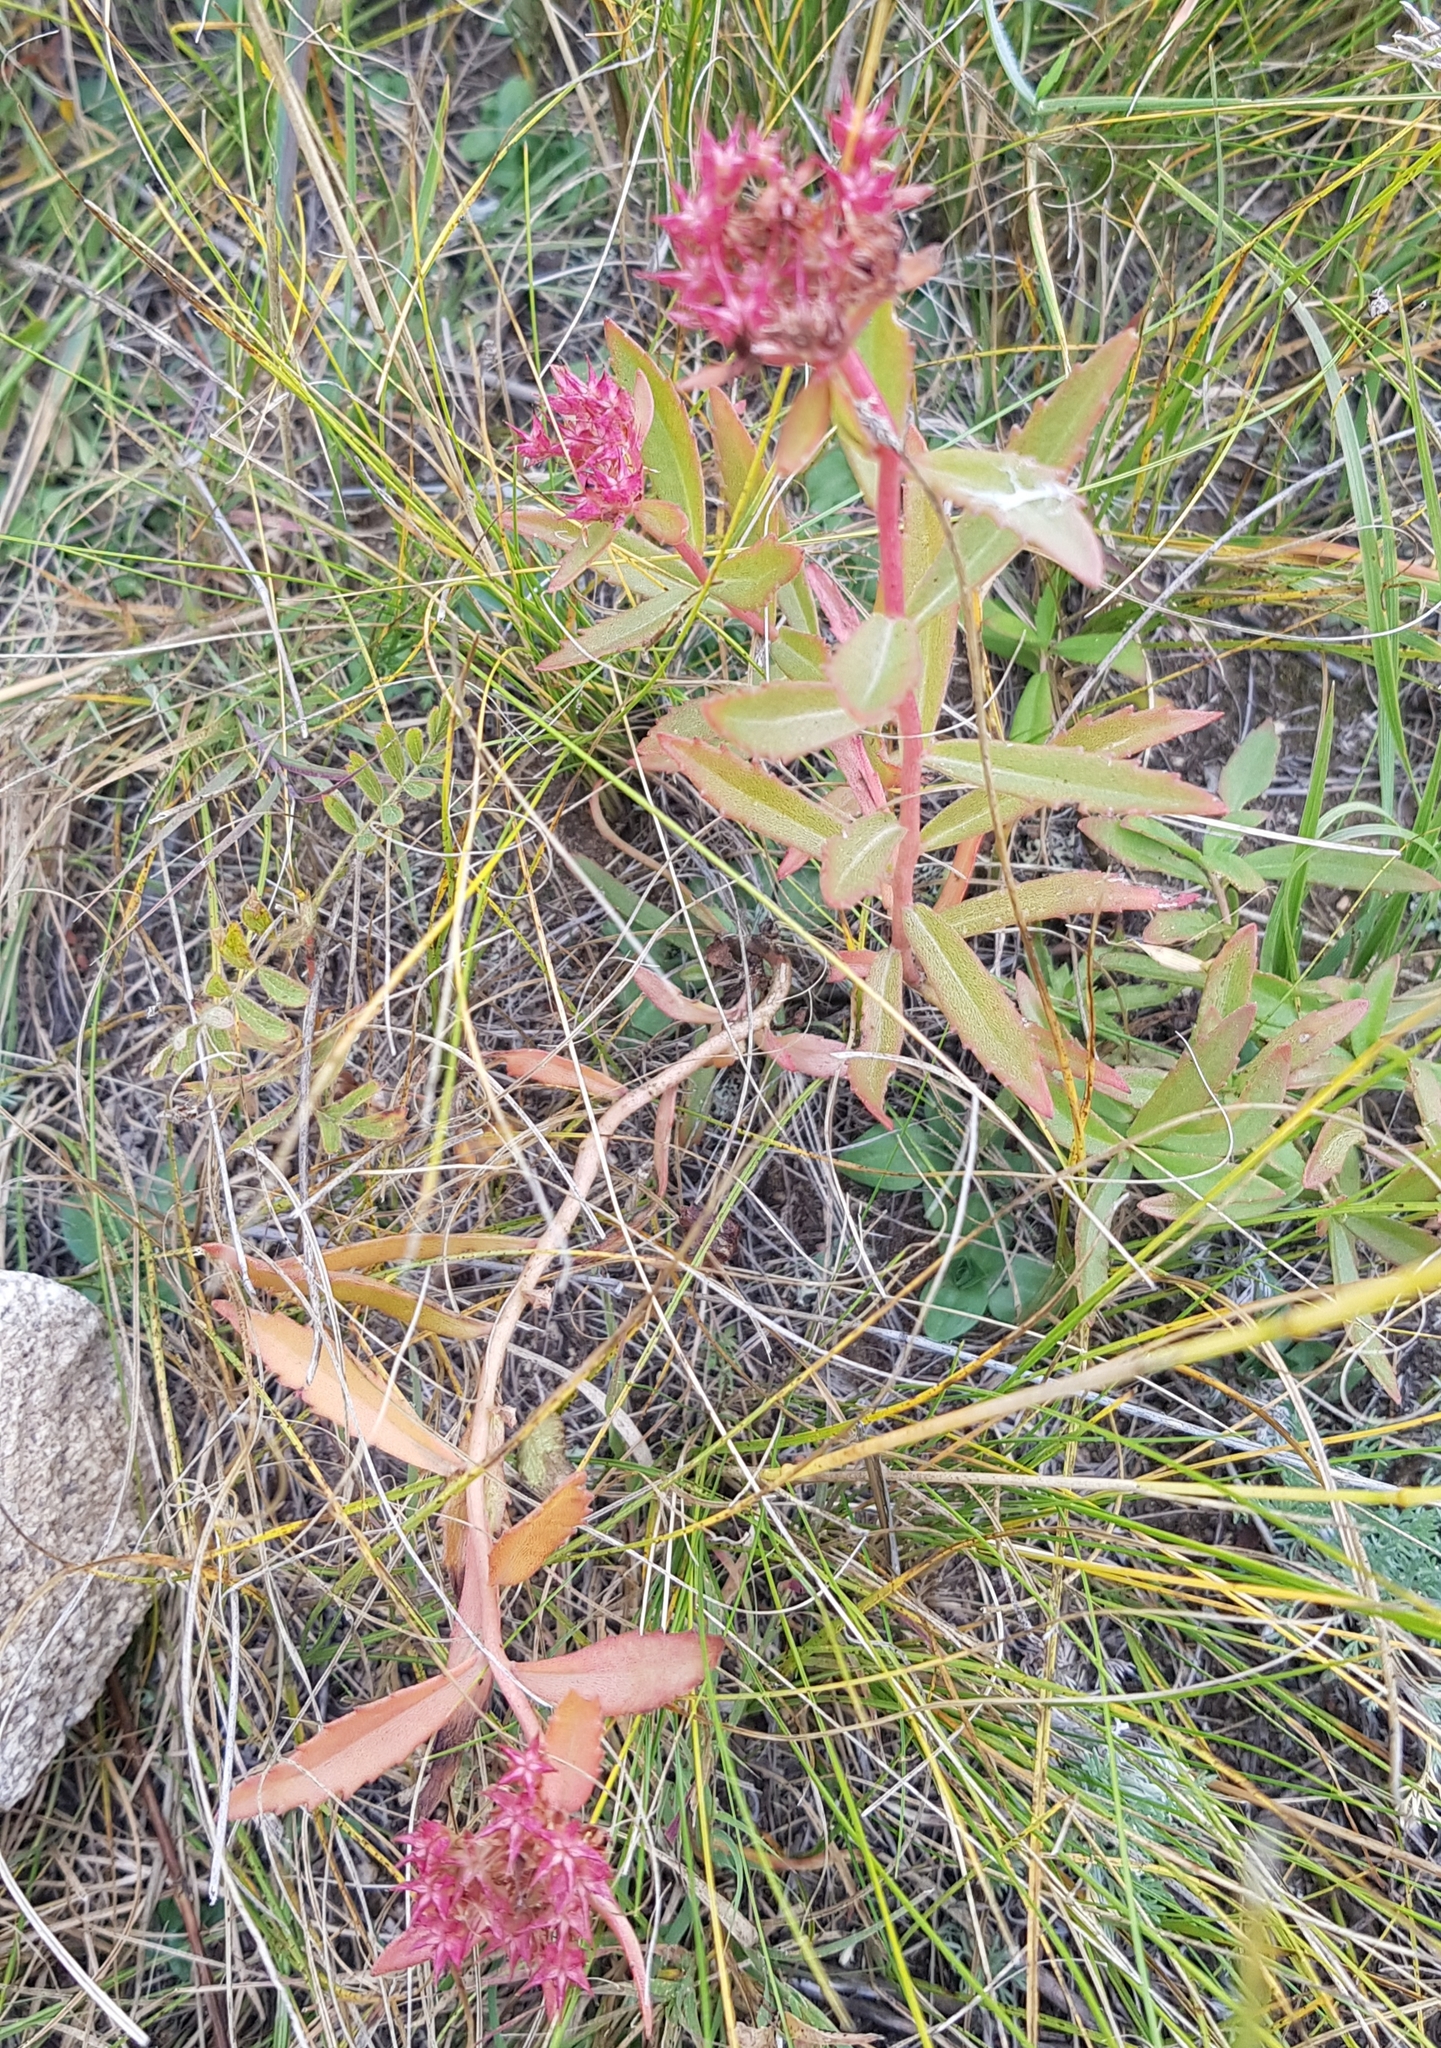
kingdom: Plantae
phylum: Tracheophyta
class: Magnoliopsida
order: Saxifragales
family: Crassulaceae
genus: Phedimus
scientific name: Phedimus aizoon
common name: Orpin aizoon
